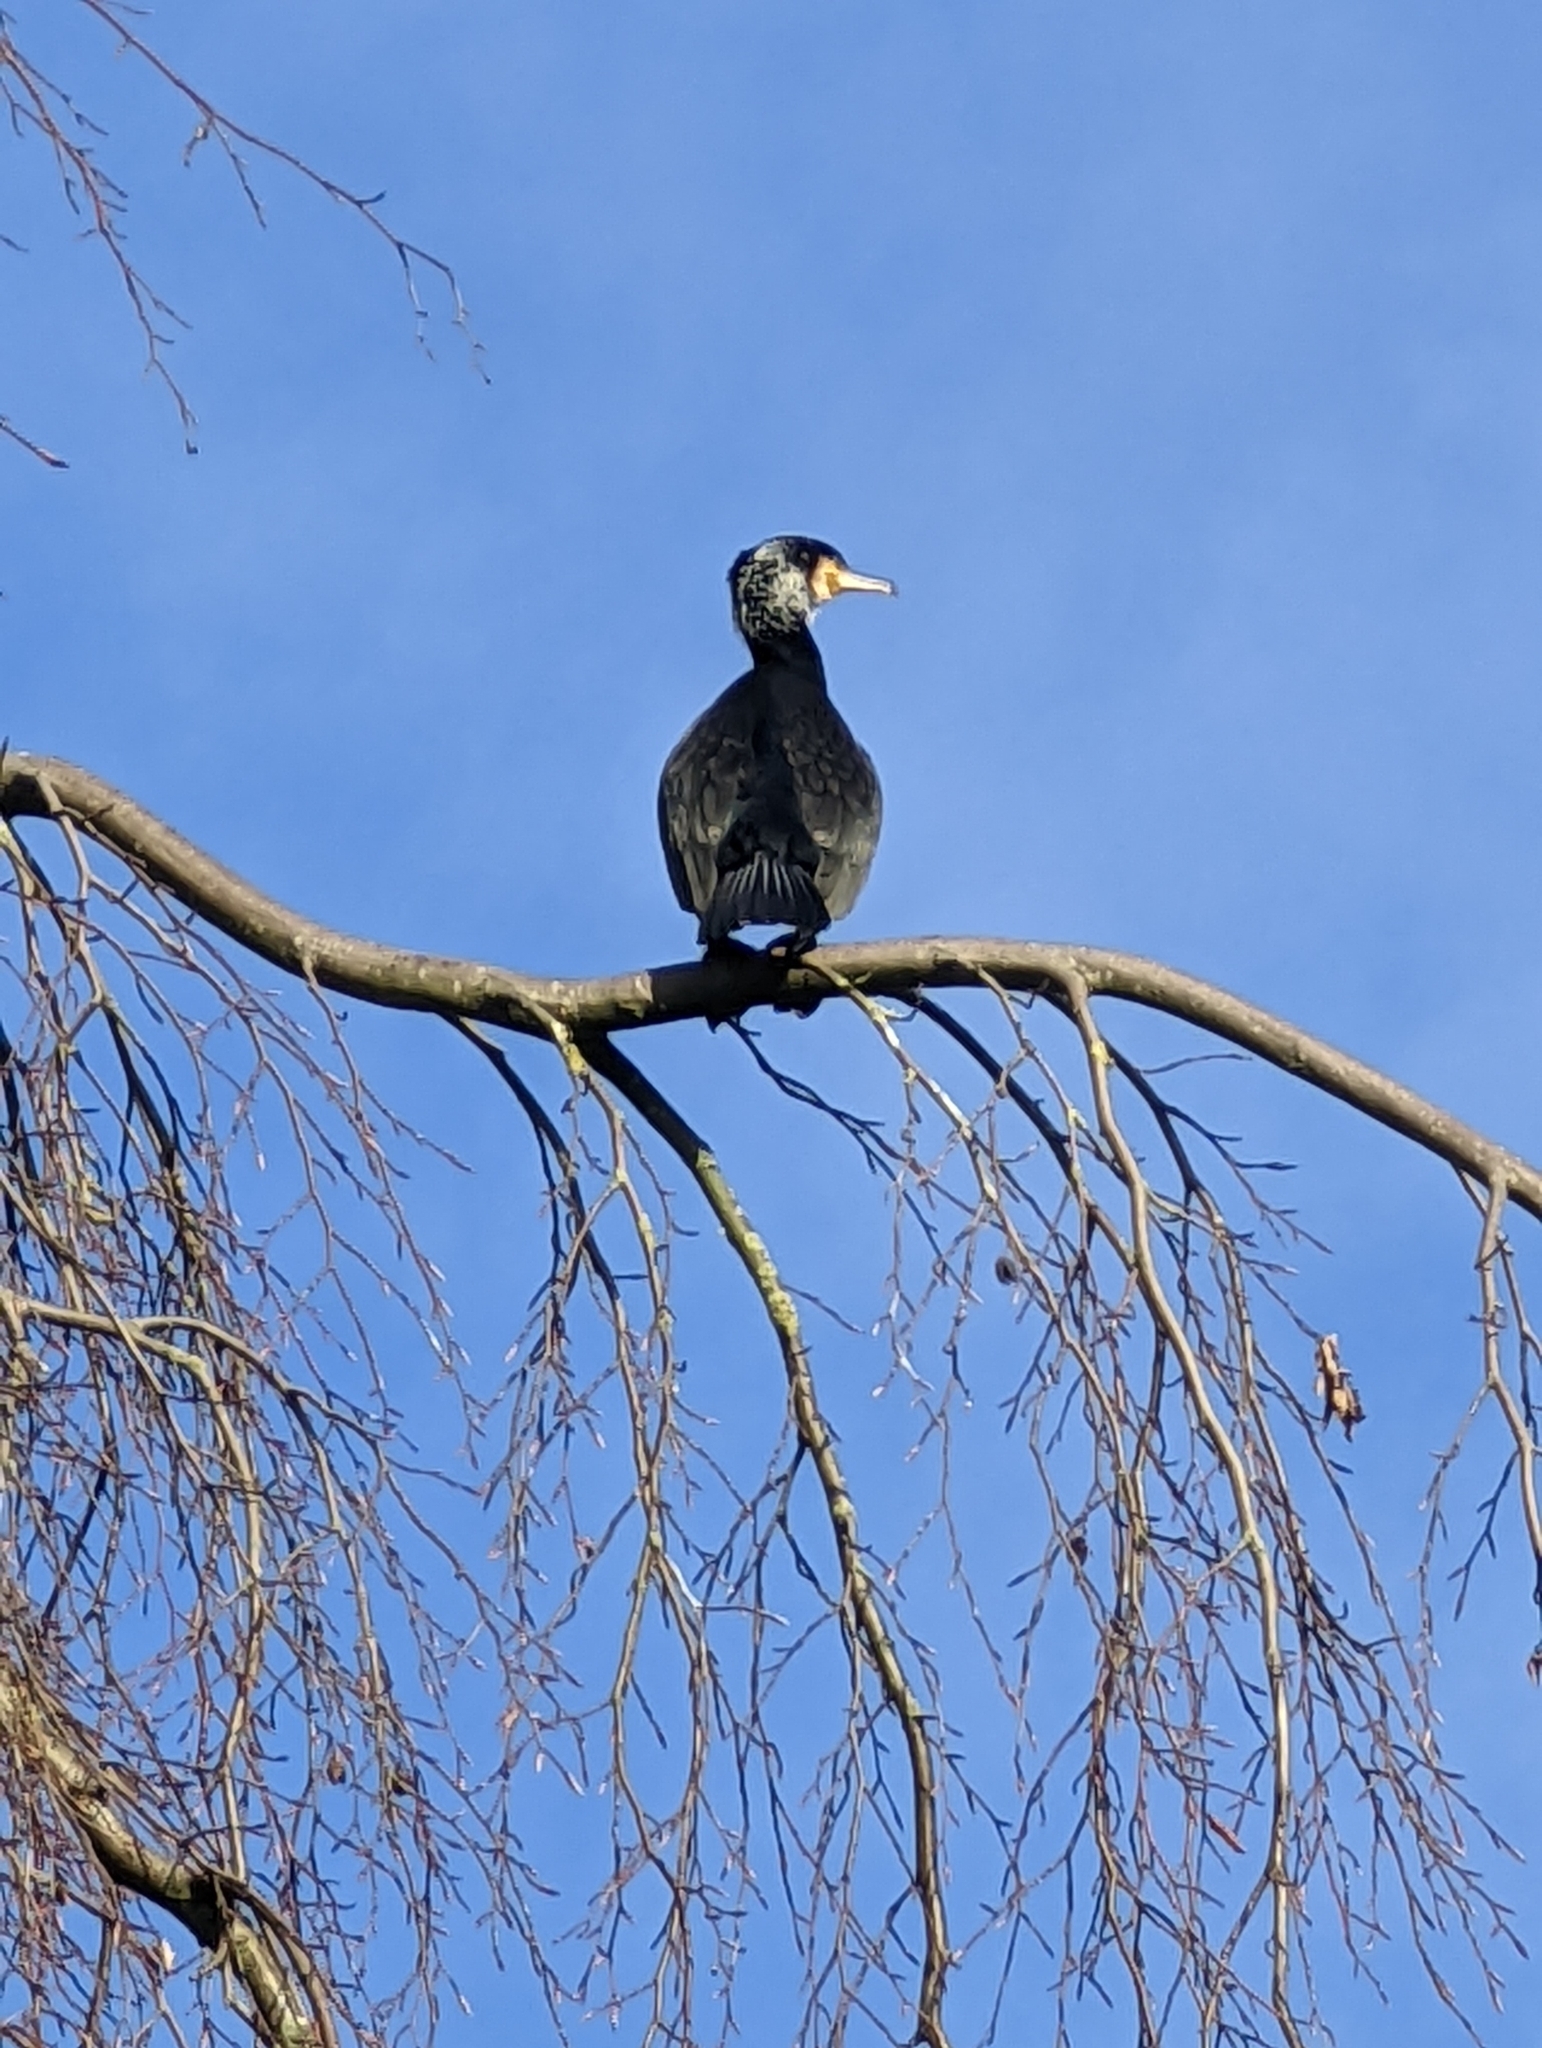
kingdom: Animalia
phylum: Chordata
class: Aves
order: Suliformes
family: Phalacrocoracidae
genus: Phalacrocorax
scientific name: Phalacrocorax carbo
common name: Great cormorant
